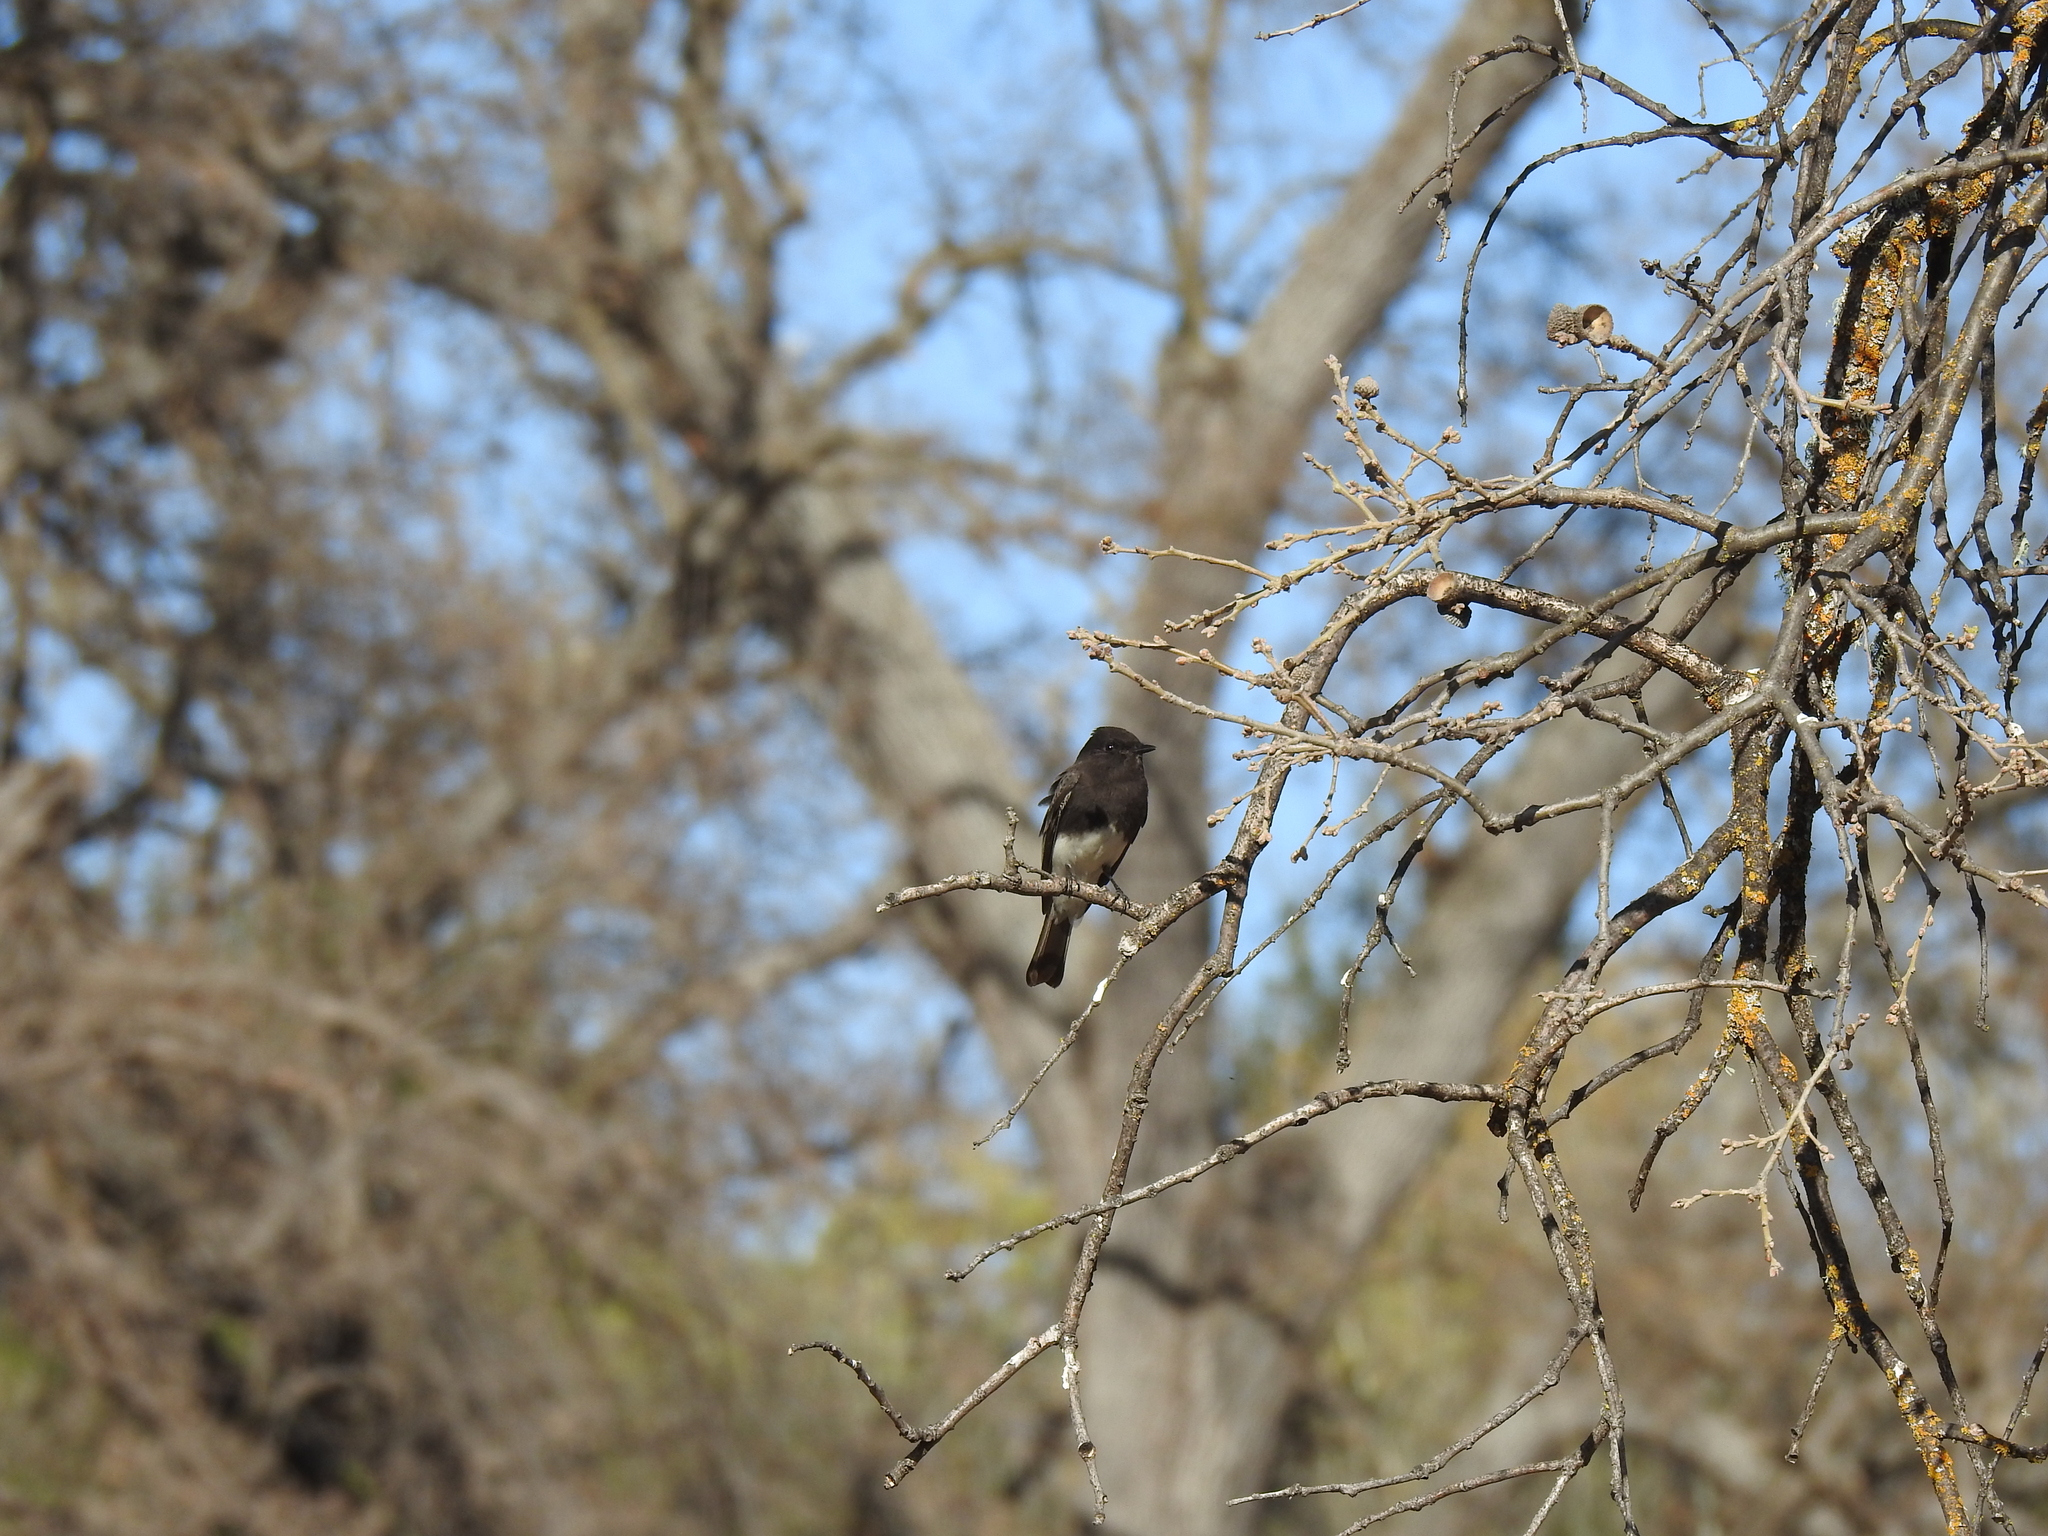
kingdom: Animalia
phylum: Chordata
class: Aves
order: Passeriformes
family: Tyrannidae
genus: Sayornis
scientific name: Sayornis nigricans
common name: Black phoebe
